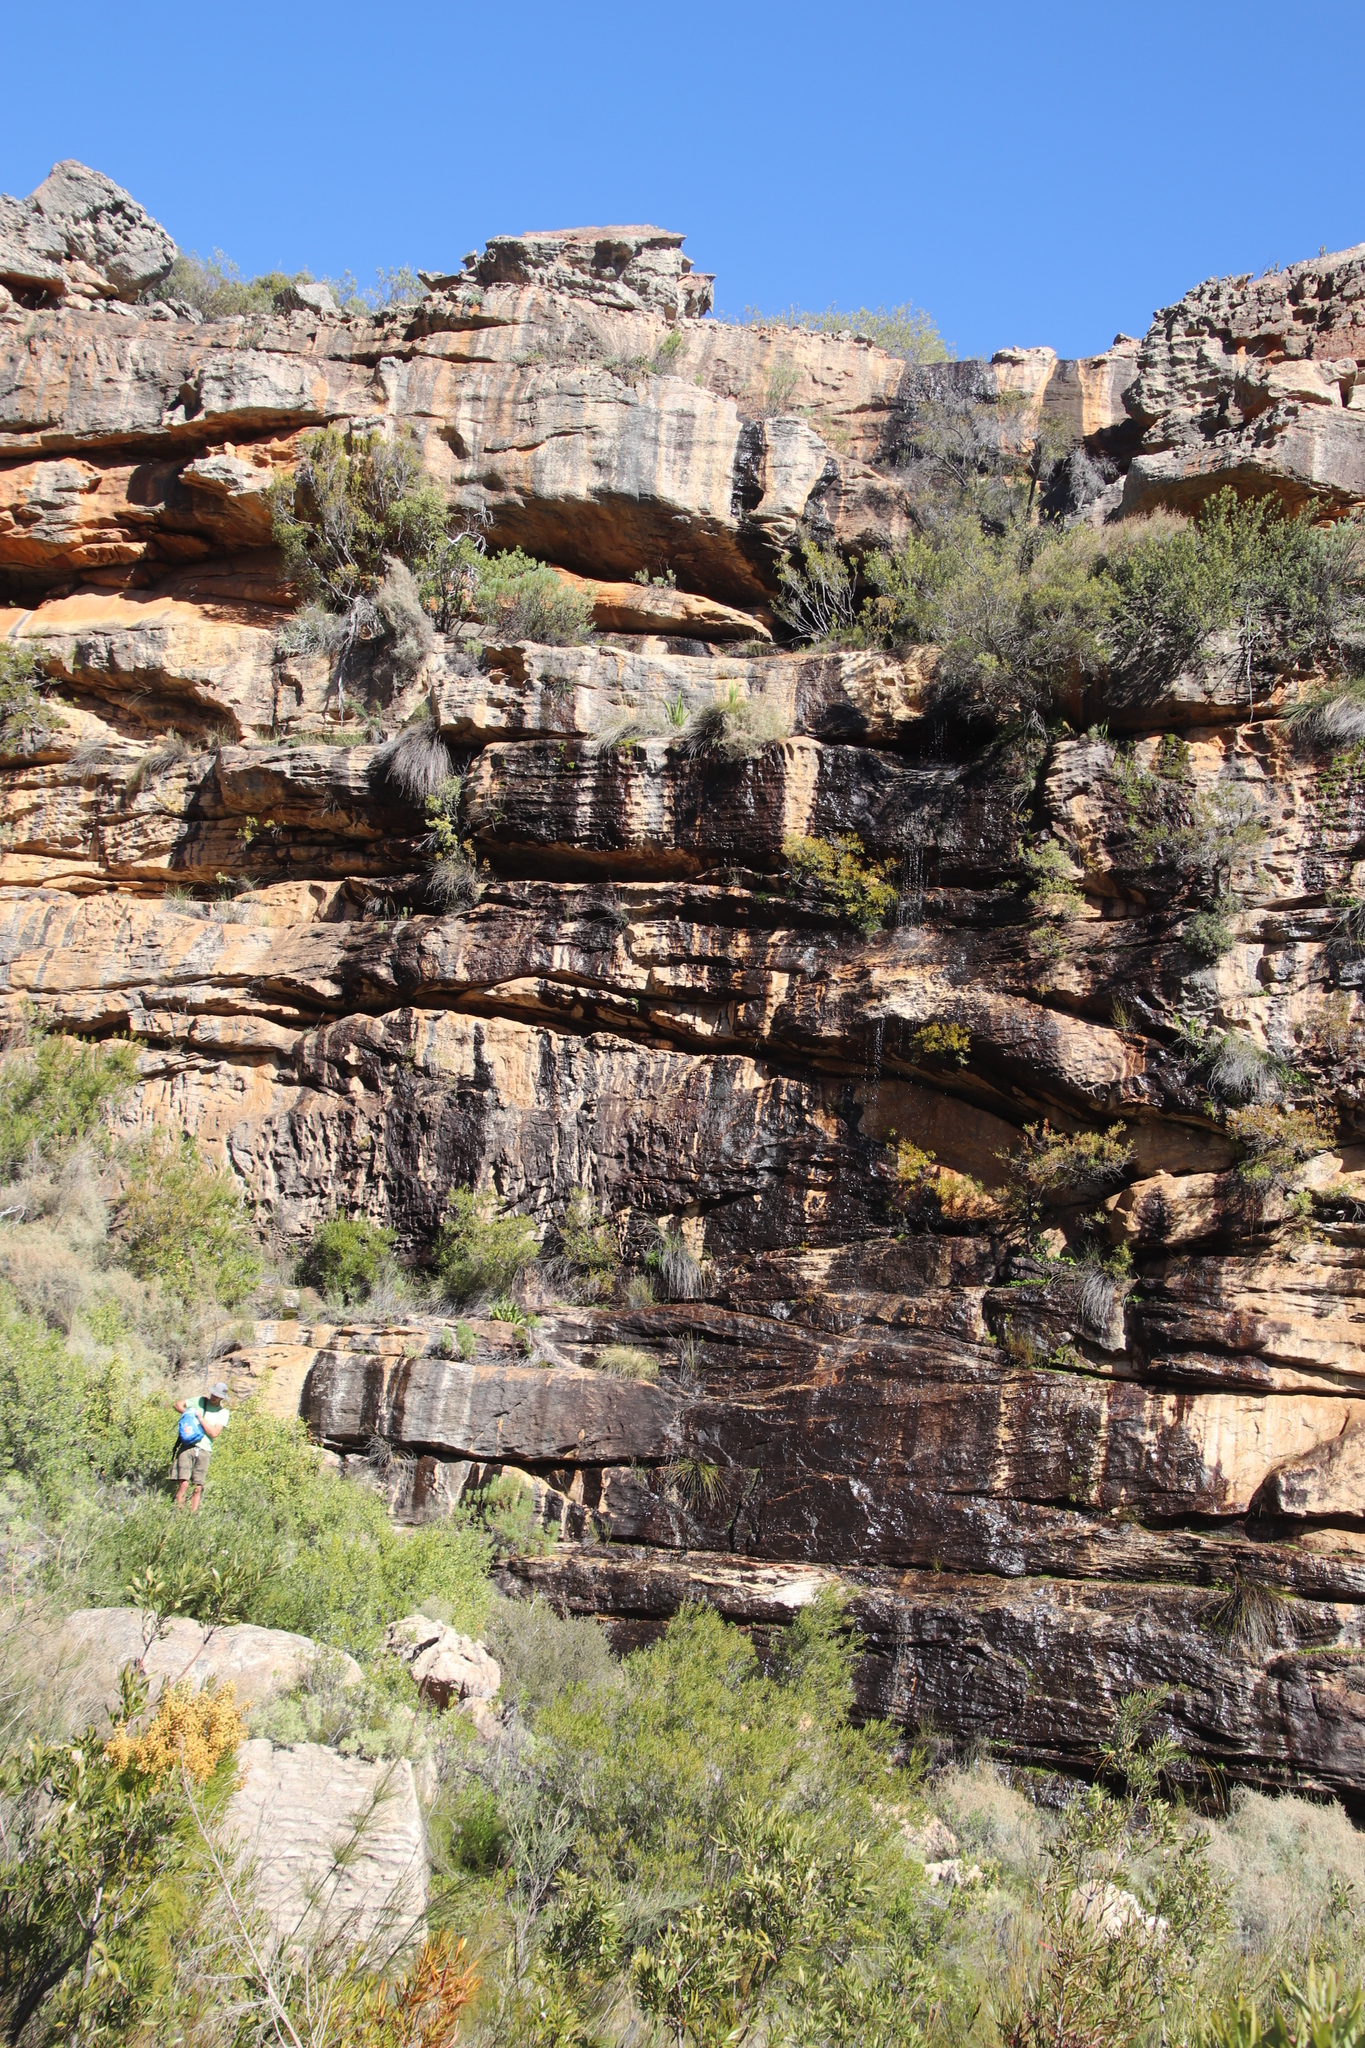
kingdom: Plantae
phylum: Tracheophyta
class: Magnoliopsida
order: Myrtales
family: Myrtaceae
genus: Callistemon
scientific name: Callistemon lanceolatus
